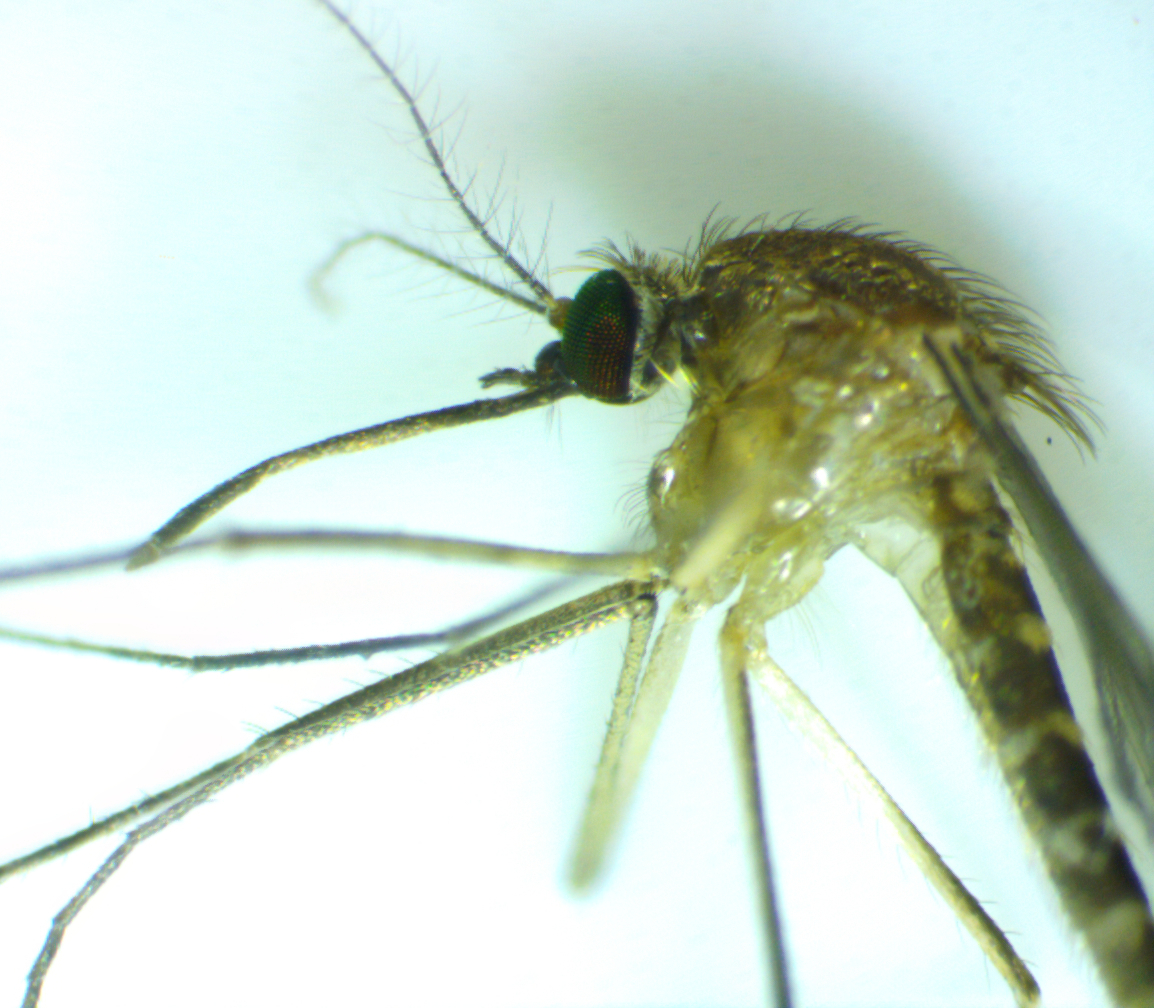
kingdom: Animalia
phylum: Arthropoda
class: Insecta
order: Diptera
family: Culicidae
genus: Culex
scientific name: Culex quinquefasciatus
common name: Southern house mosquito
